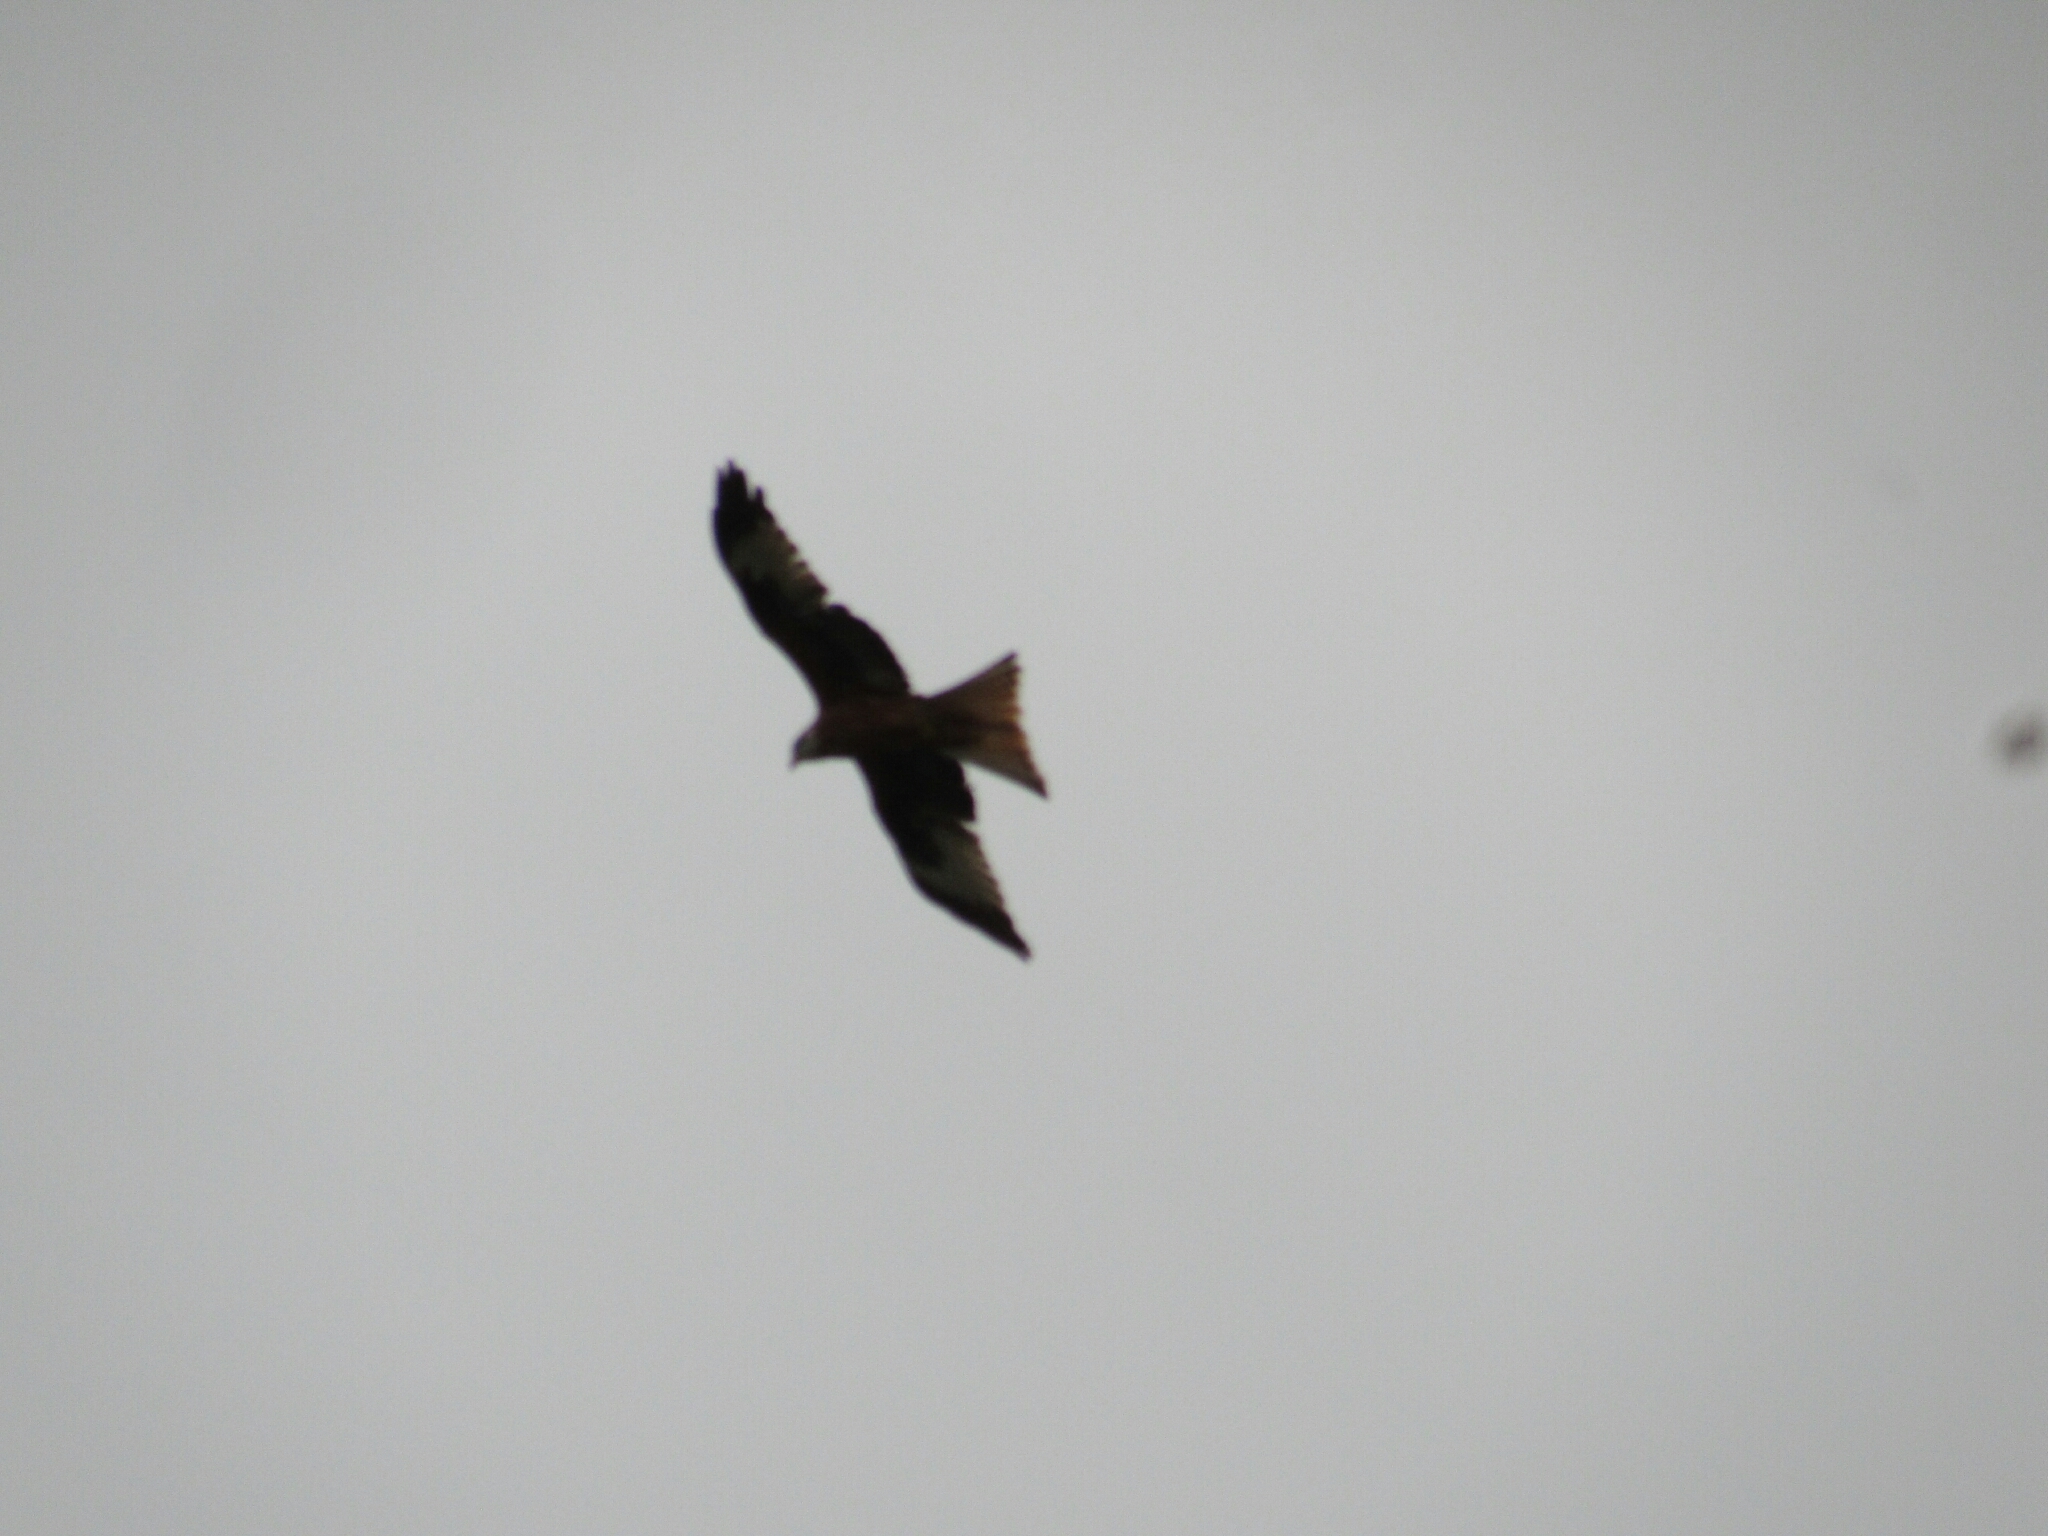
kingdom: Animalia
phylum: Chordata
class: Aves
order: Accipitriformes
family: Accipitridae
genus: Milvus
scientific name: Milvus milvus
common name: Red kite
